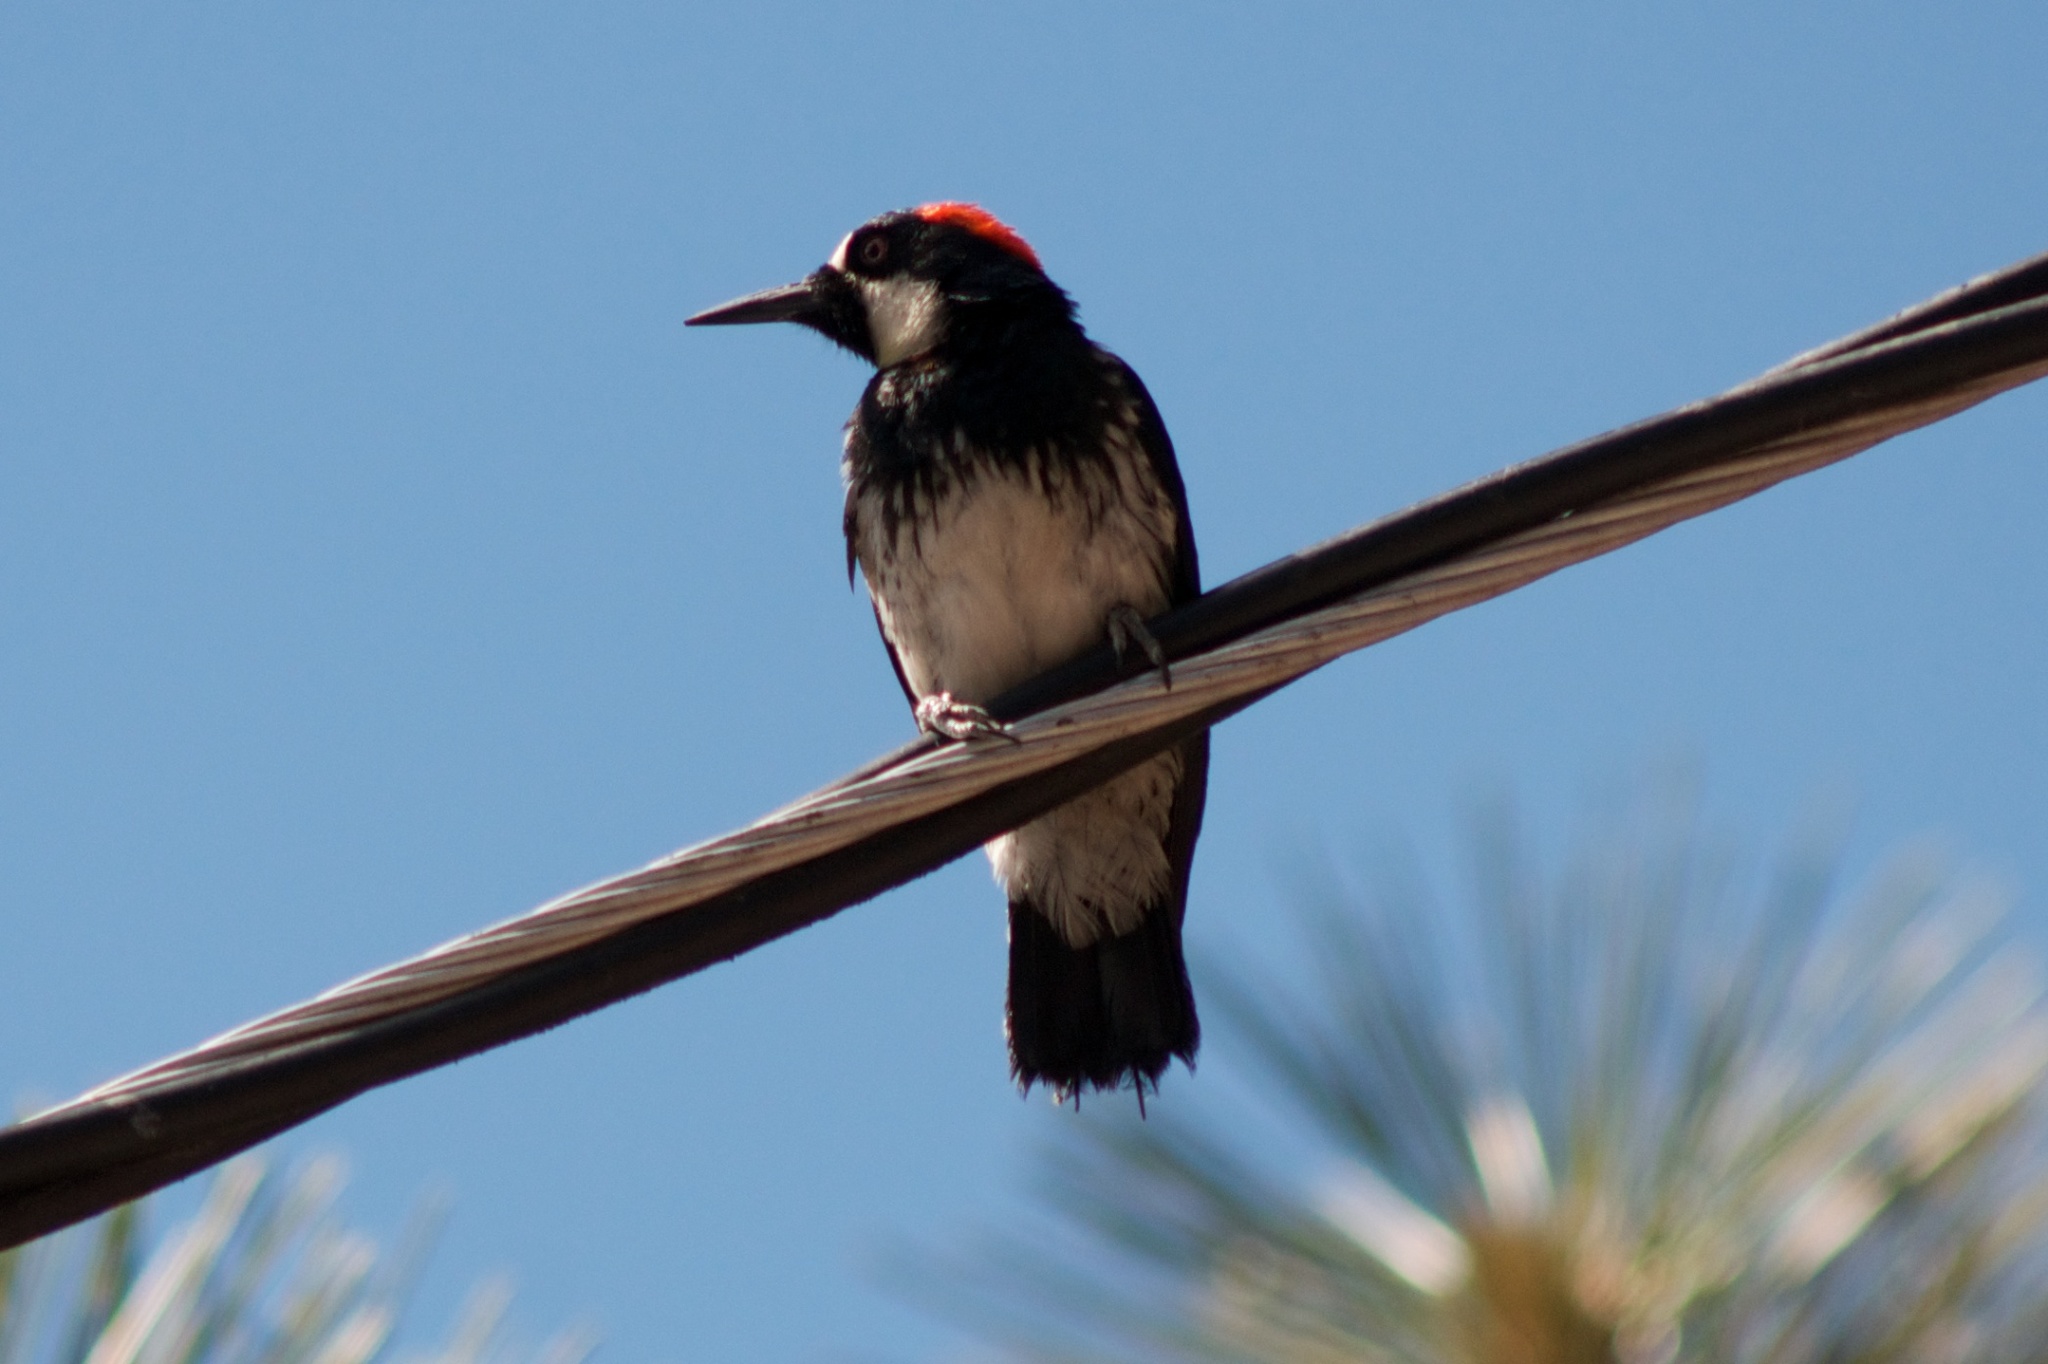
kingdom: Animalia
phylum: Chordata
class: Aves
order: Piciformes
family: Picidae
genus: Melanerpes
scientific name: Melanerpes formicivorus
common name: Acorn woodpecker
